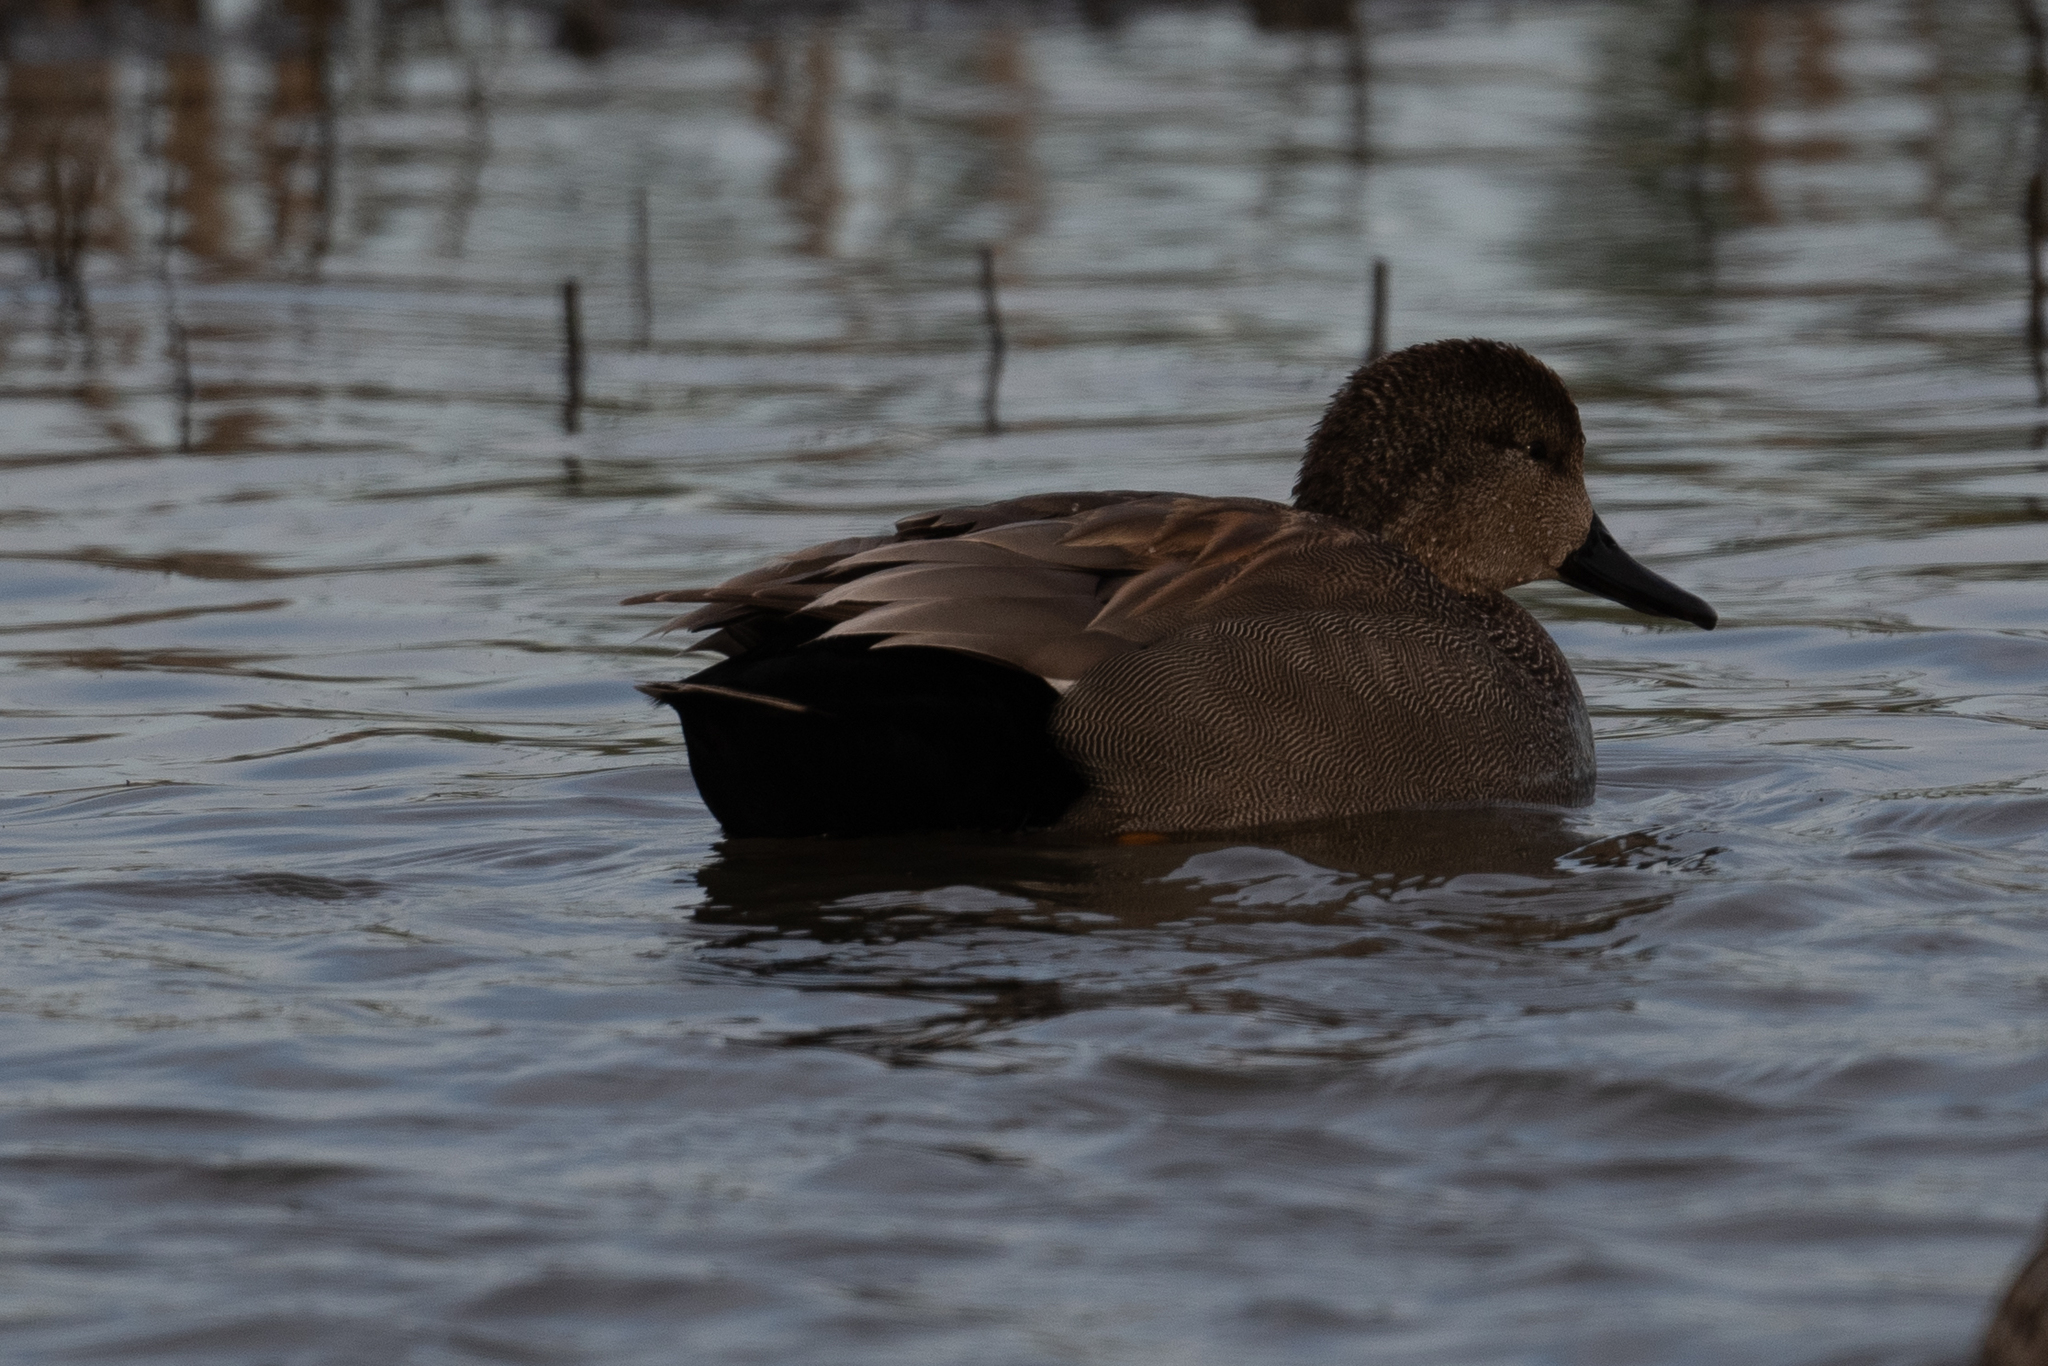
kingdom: Animalia
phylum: Chordata
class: Aves
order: Anseriformes
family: Anatidae
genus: Mareca
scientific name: Mareca strepera
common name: Gadwall
